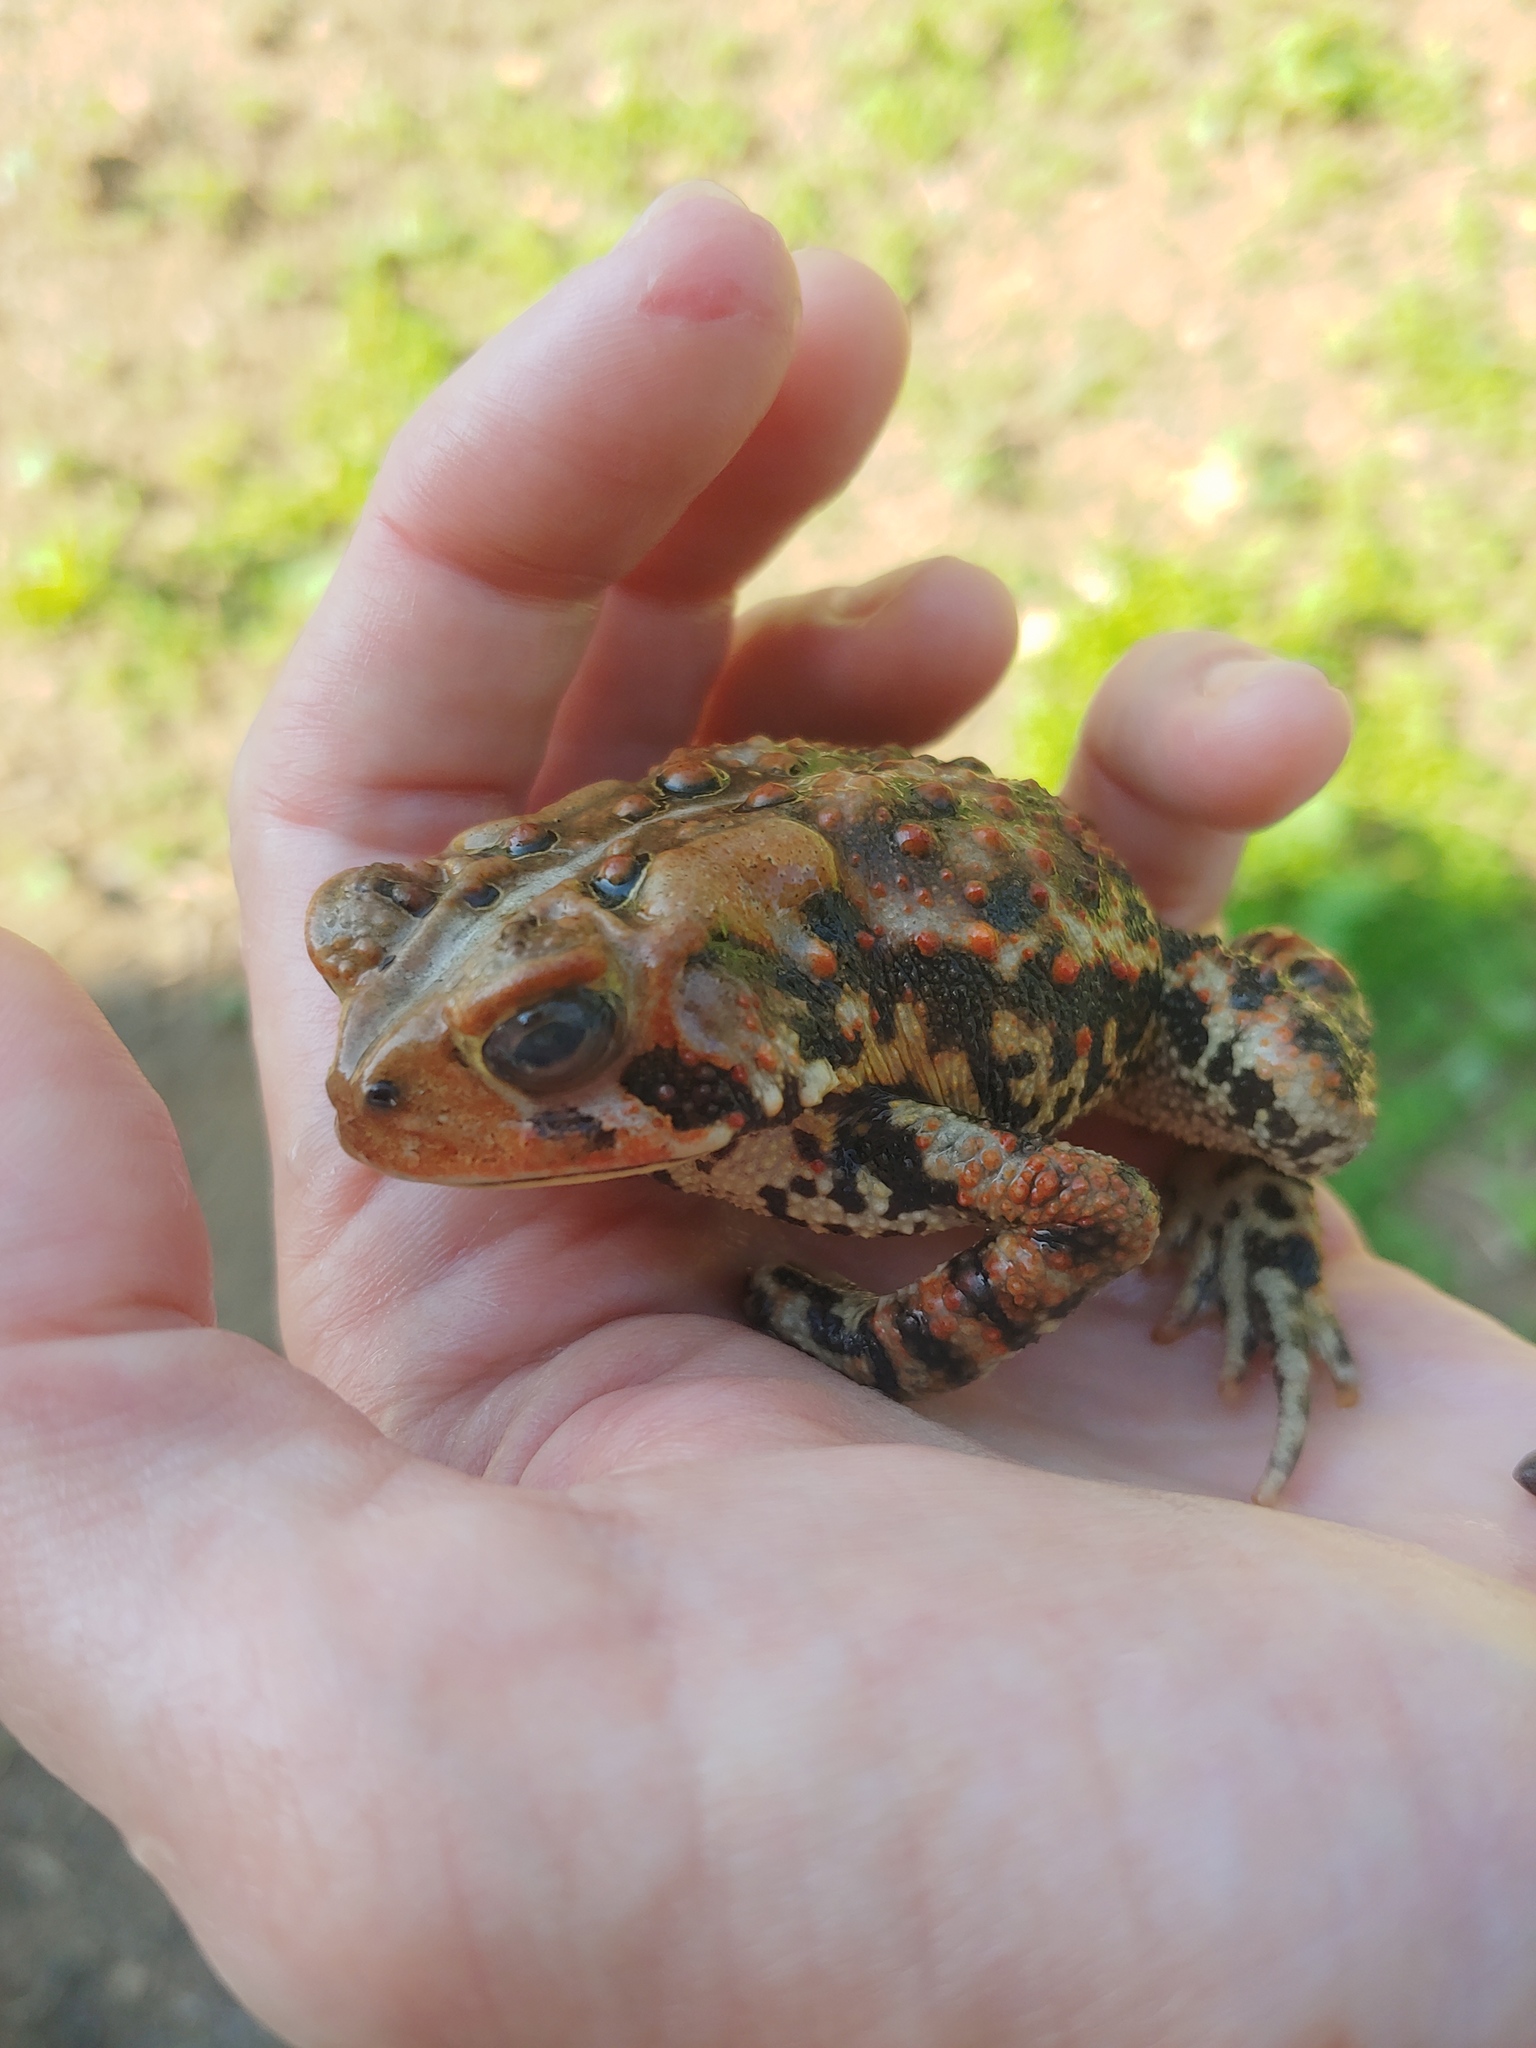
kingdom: Animalia
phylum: Chordata
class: Amphibia
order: Anura
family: Bufonidae
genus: Anaxyrus
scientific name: Anaxyrus americanus
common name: American toad
